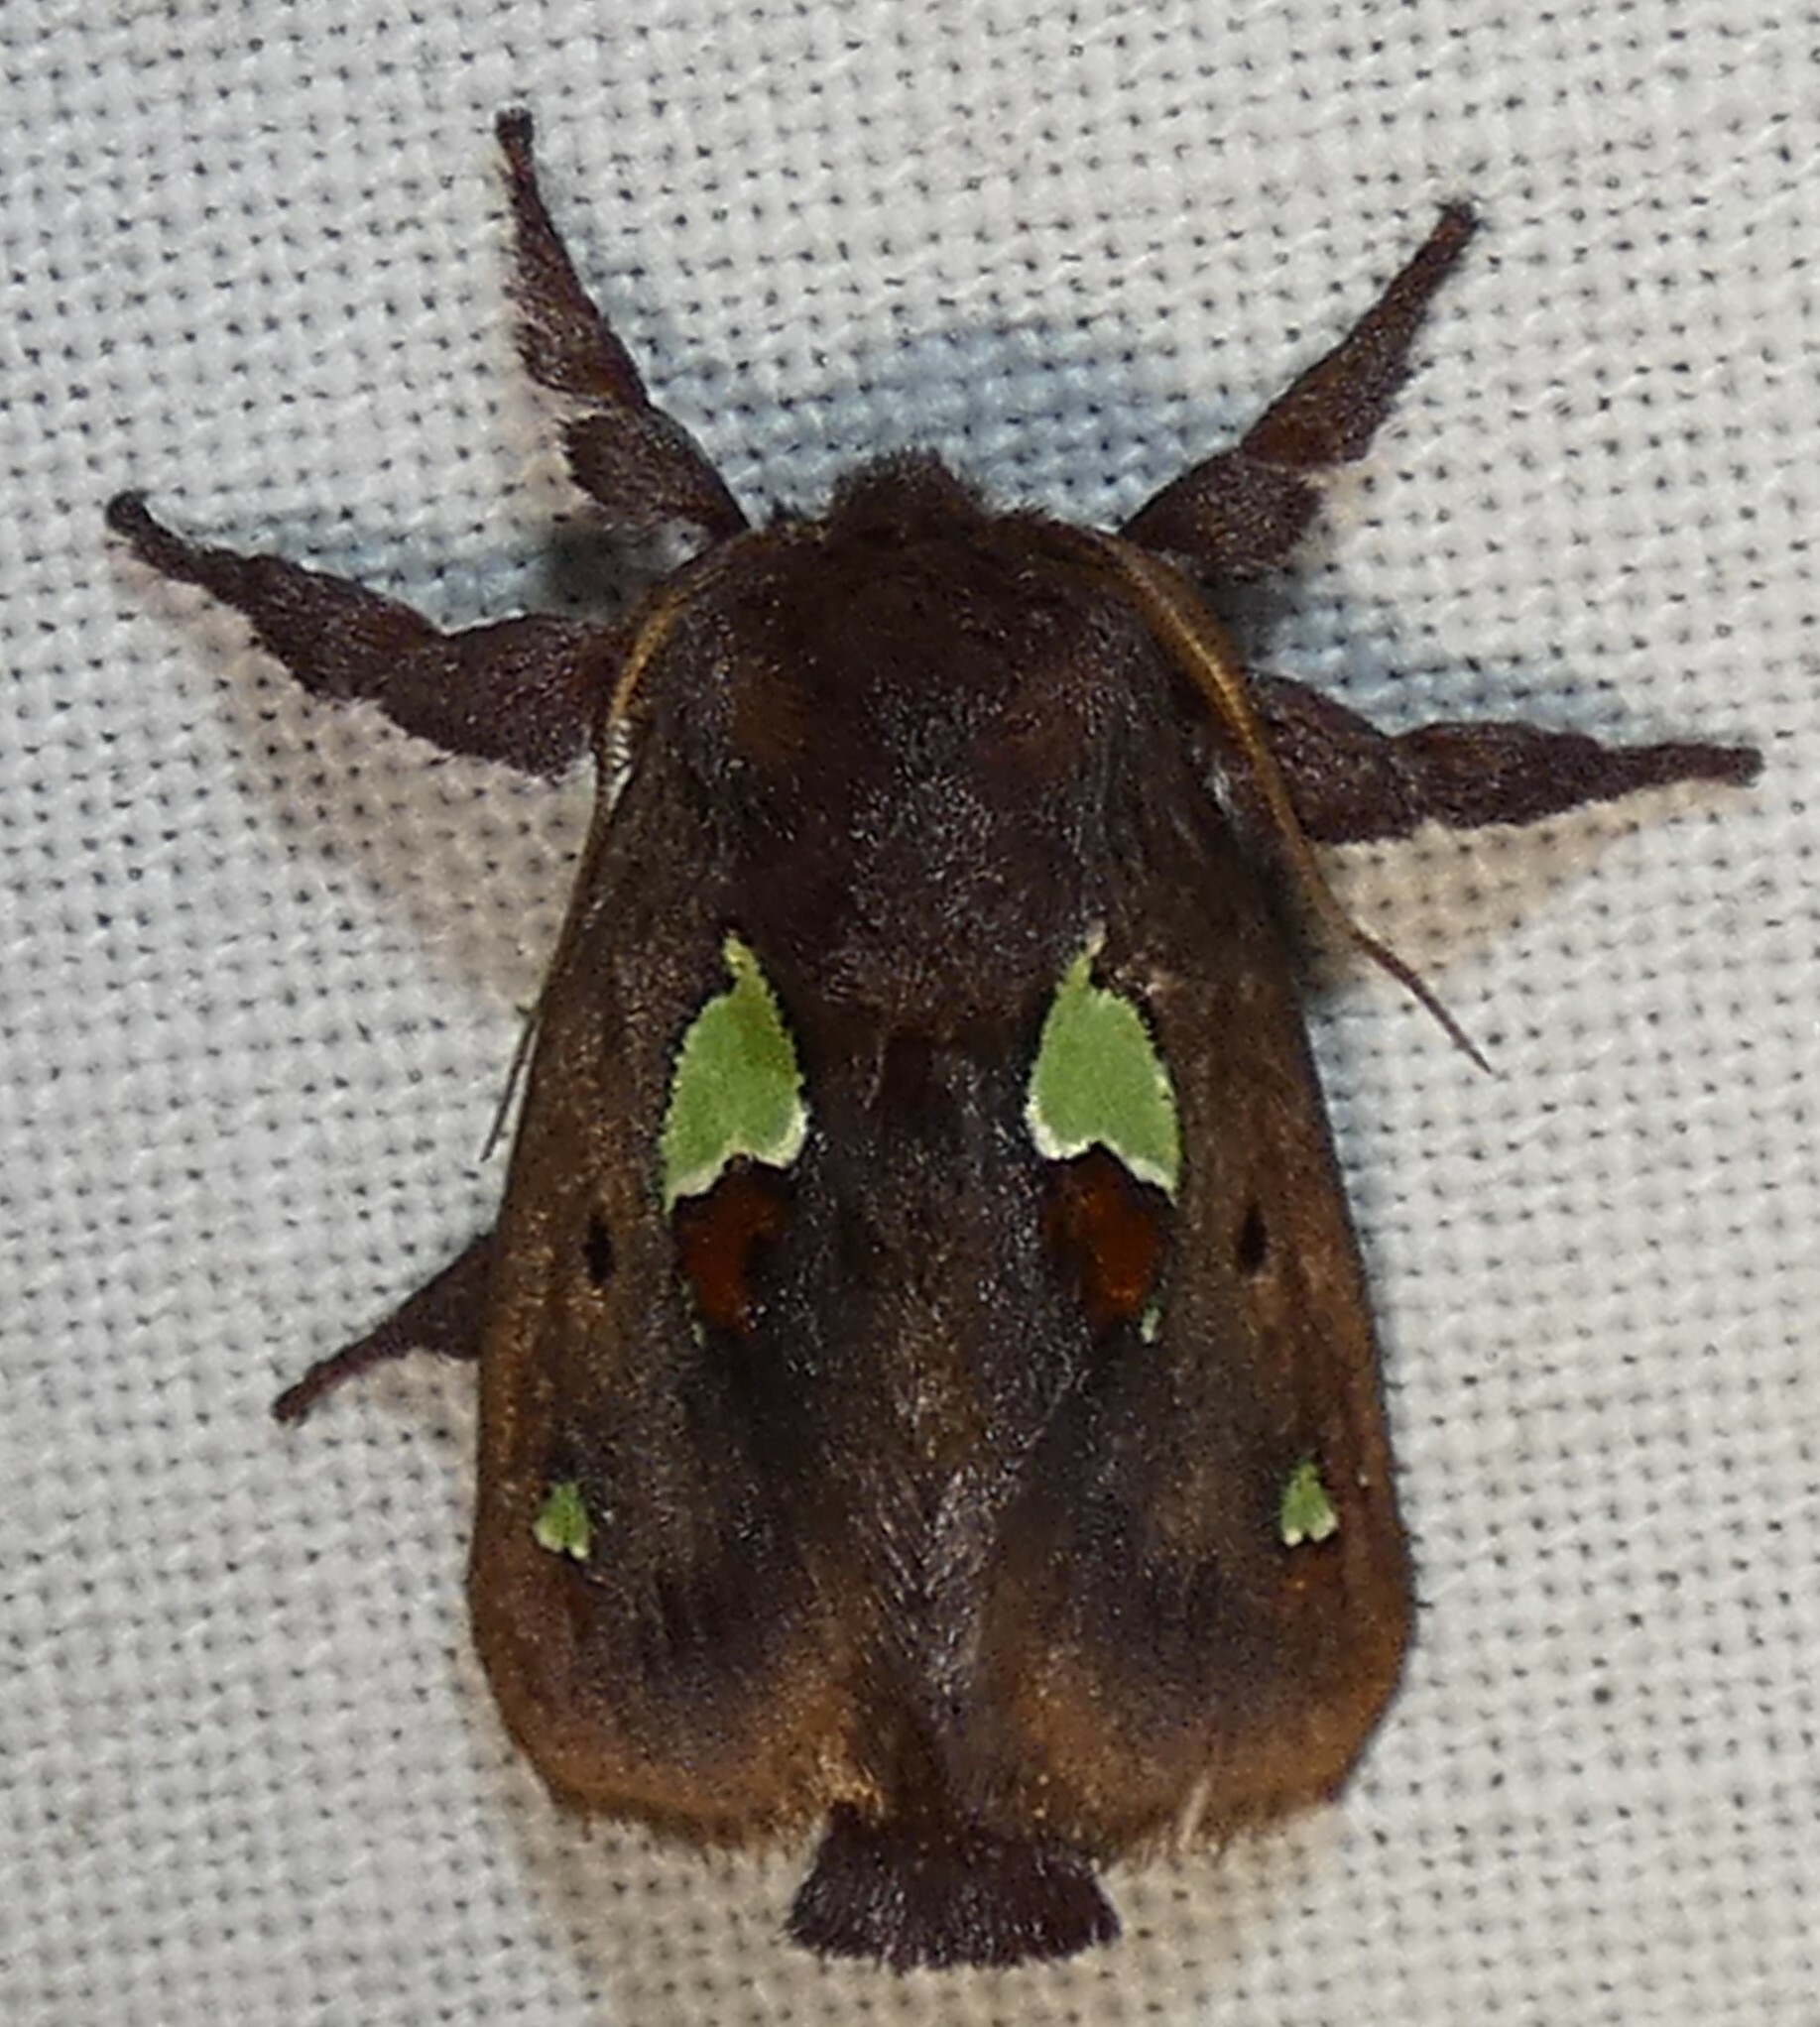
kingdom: Animalia
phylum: Arthropoda
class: Insecta
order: Lepidoptera
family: Limacodidae
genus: Euclea
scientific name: Euclea delphinii
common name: Spiny oak-slug moth
